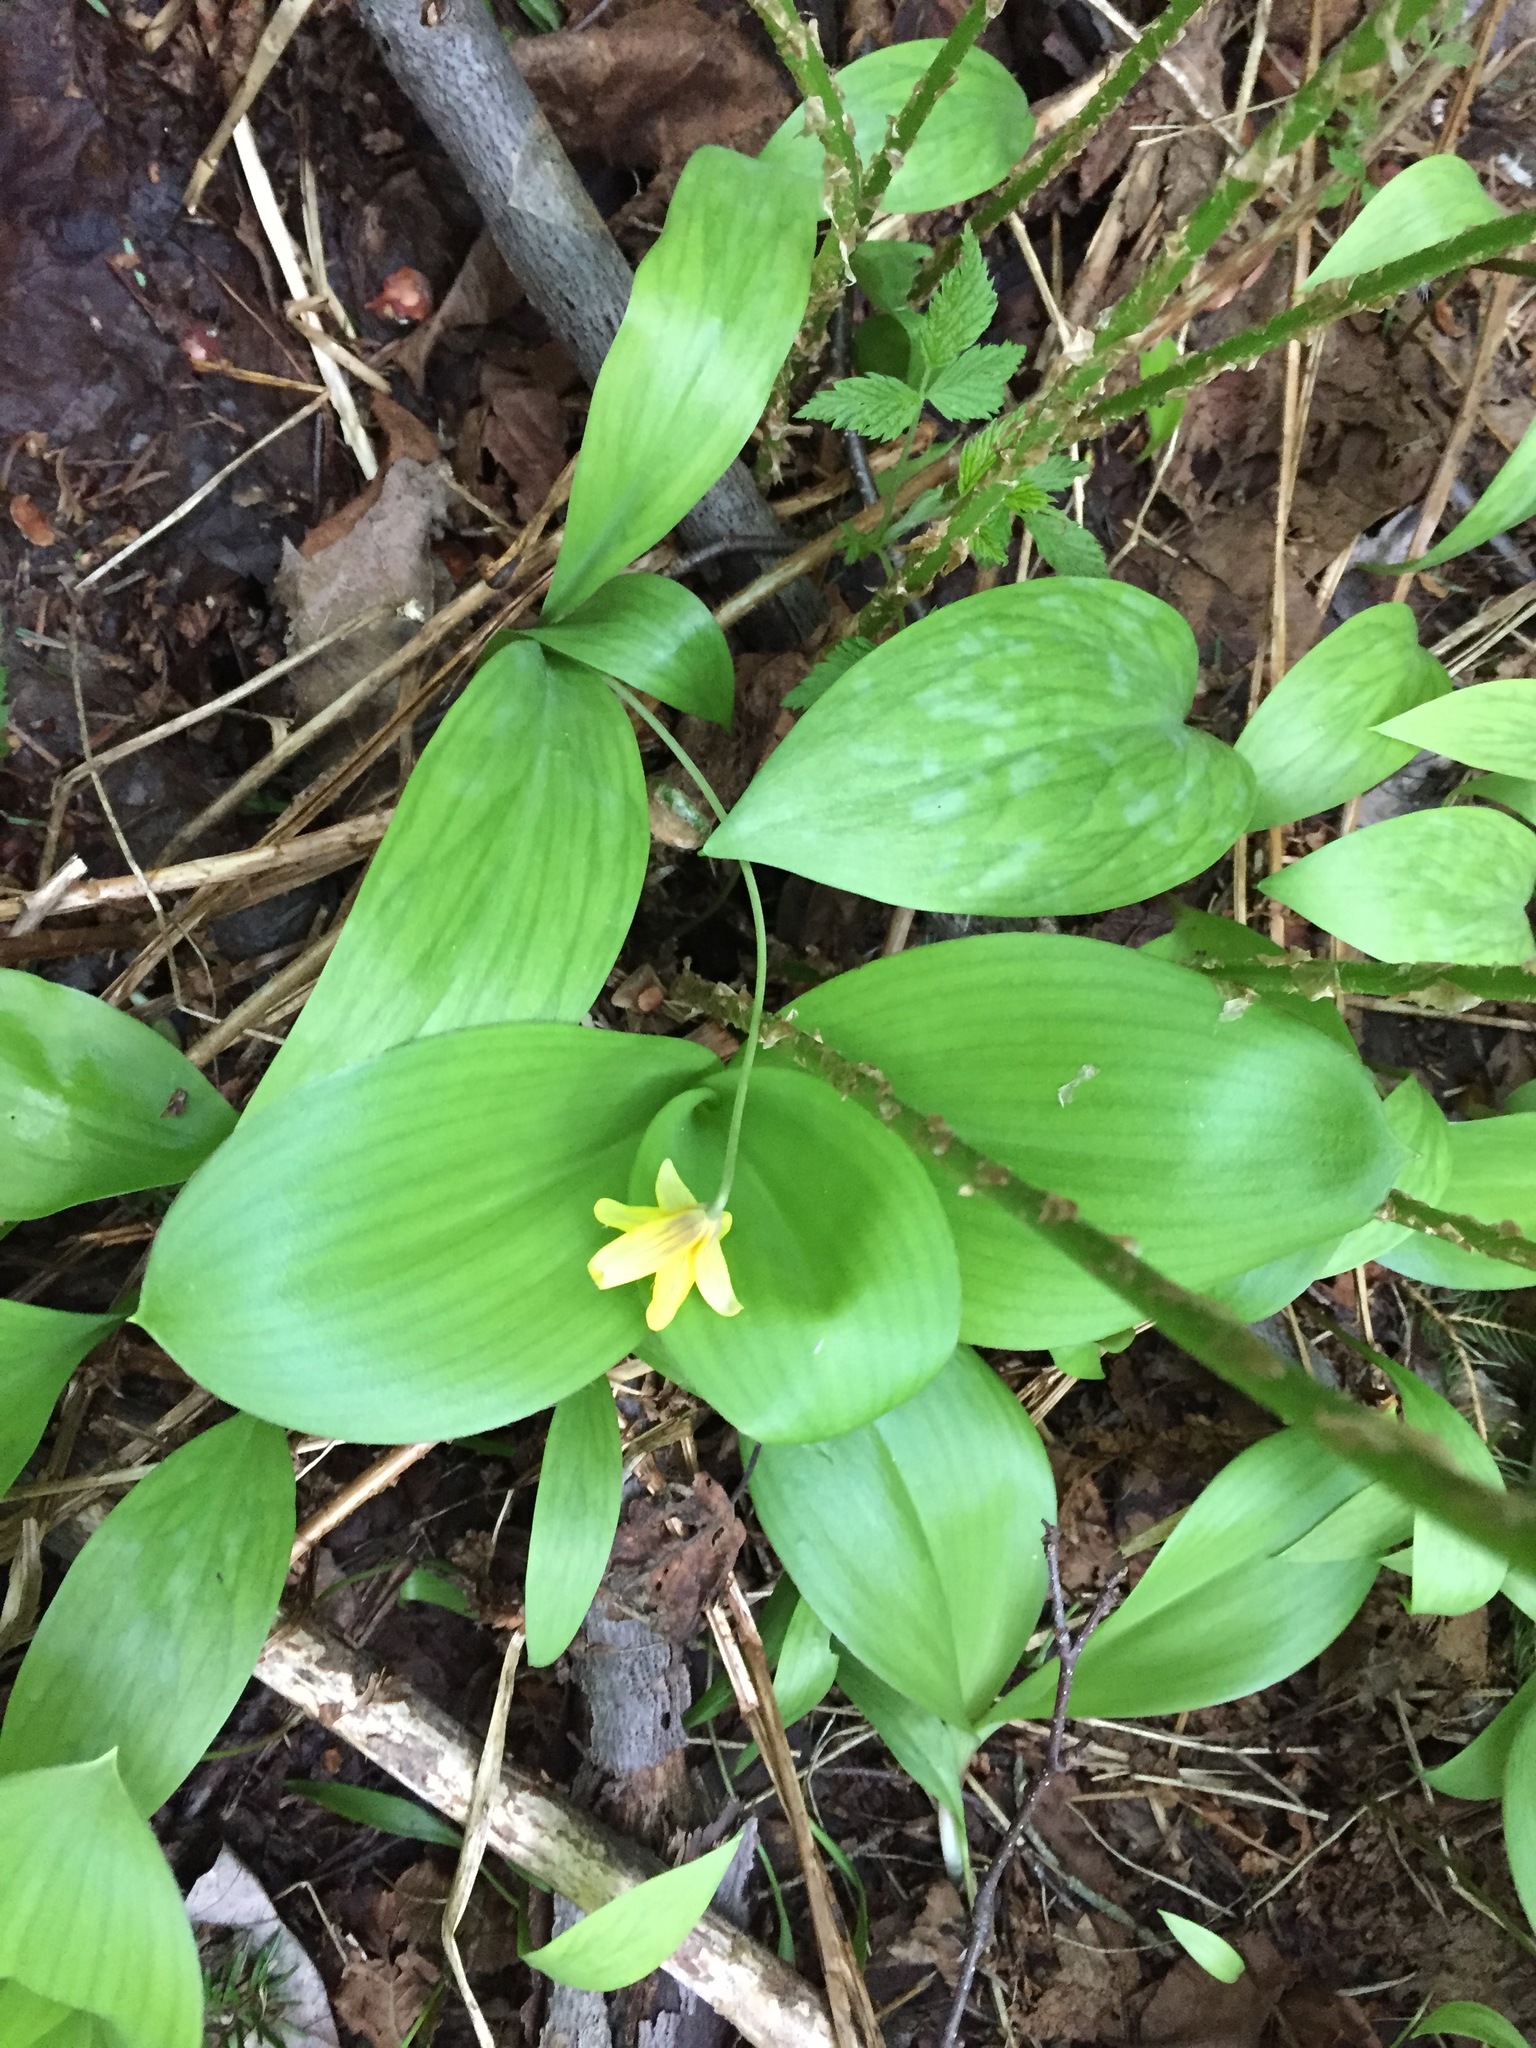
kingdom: Plantae
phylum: Tracheophyta
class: Liliopsida
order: Liliales
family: Liliaceae
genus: Erythronium
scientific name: Erythronium americanum
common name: Yellow adder's-tongue
